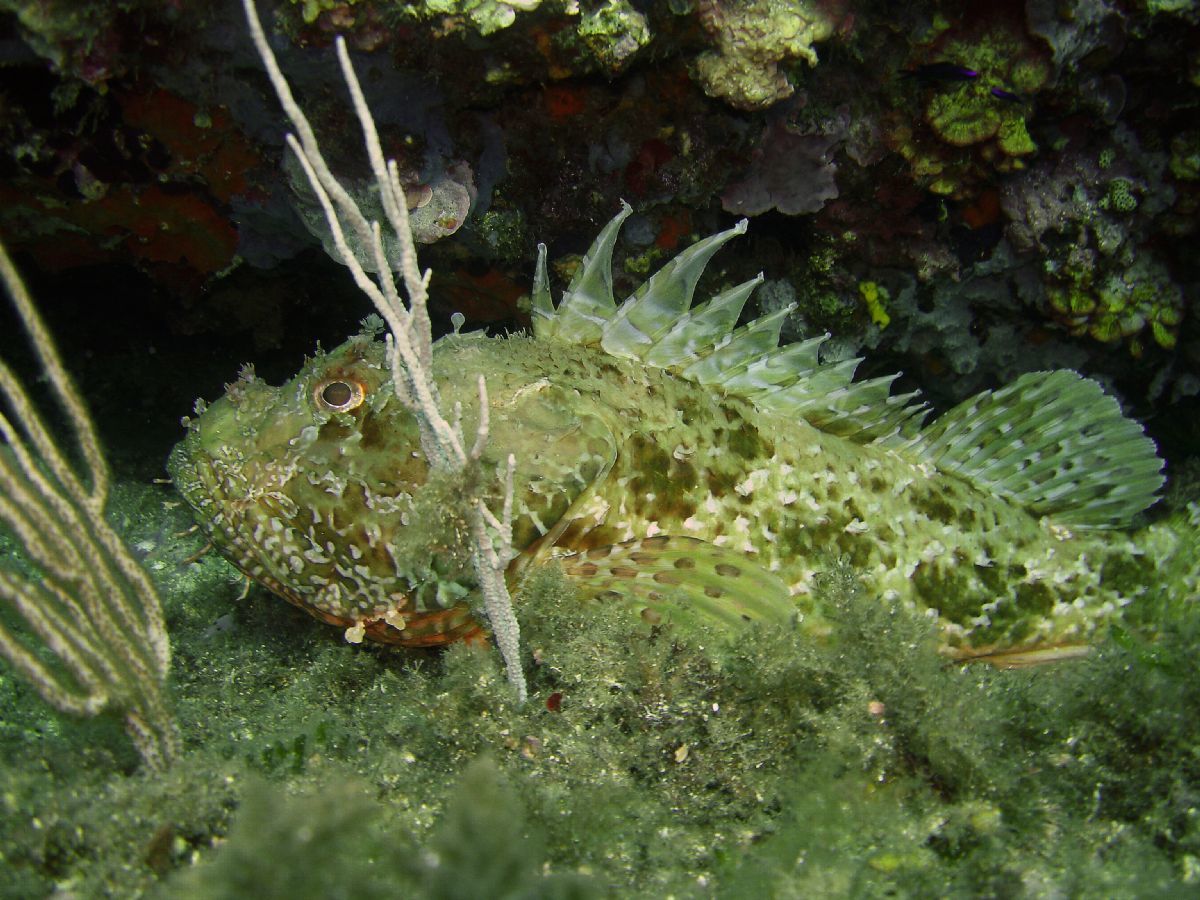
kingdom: Animalia
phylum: Chordata
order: Scorpaeniformes
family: Scorpaenidae
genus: Scorpaena
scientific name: Scorpaena scrofa
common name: Red scorpionfish
